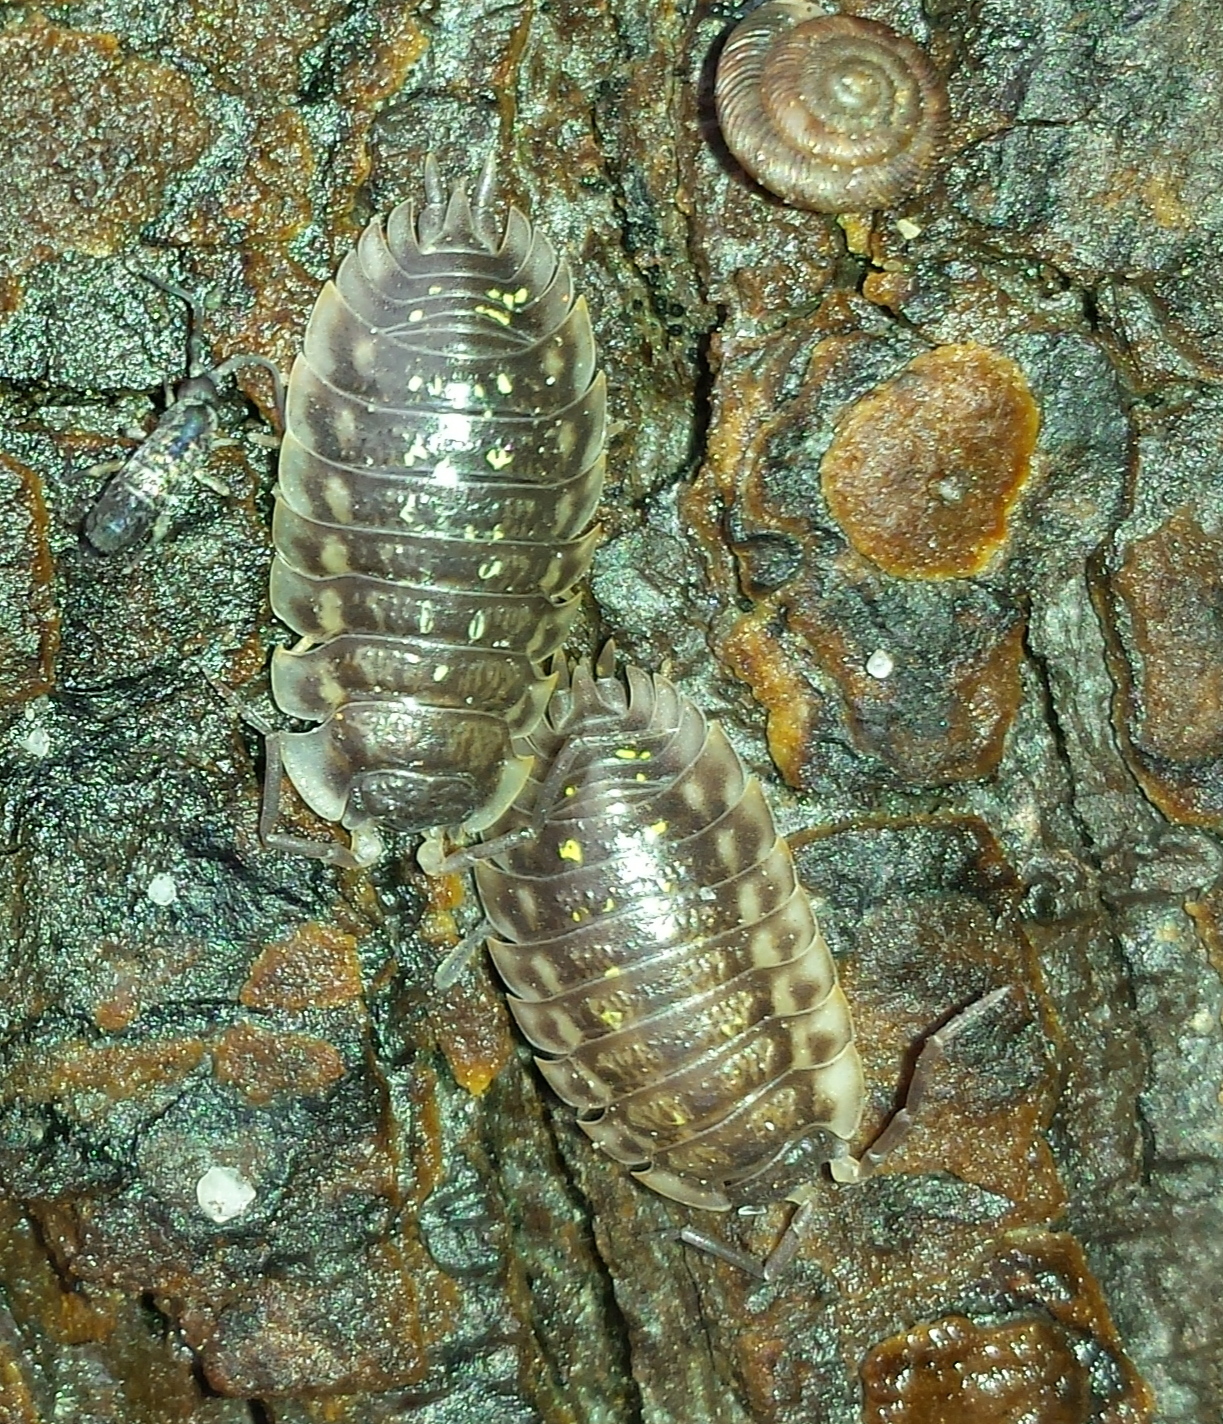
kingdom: Animalia
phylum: Arthropoda
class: Malacostraca
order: Isopoda
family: Oniscidae
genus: Oniscus
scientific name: Oniscus asellus
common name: Common shiny woodlouse
